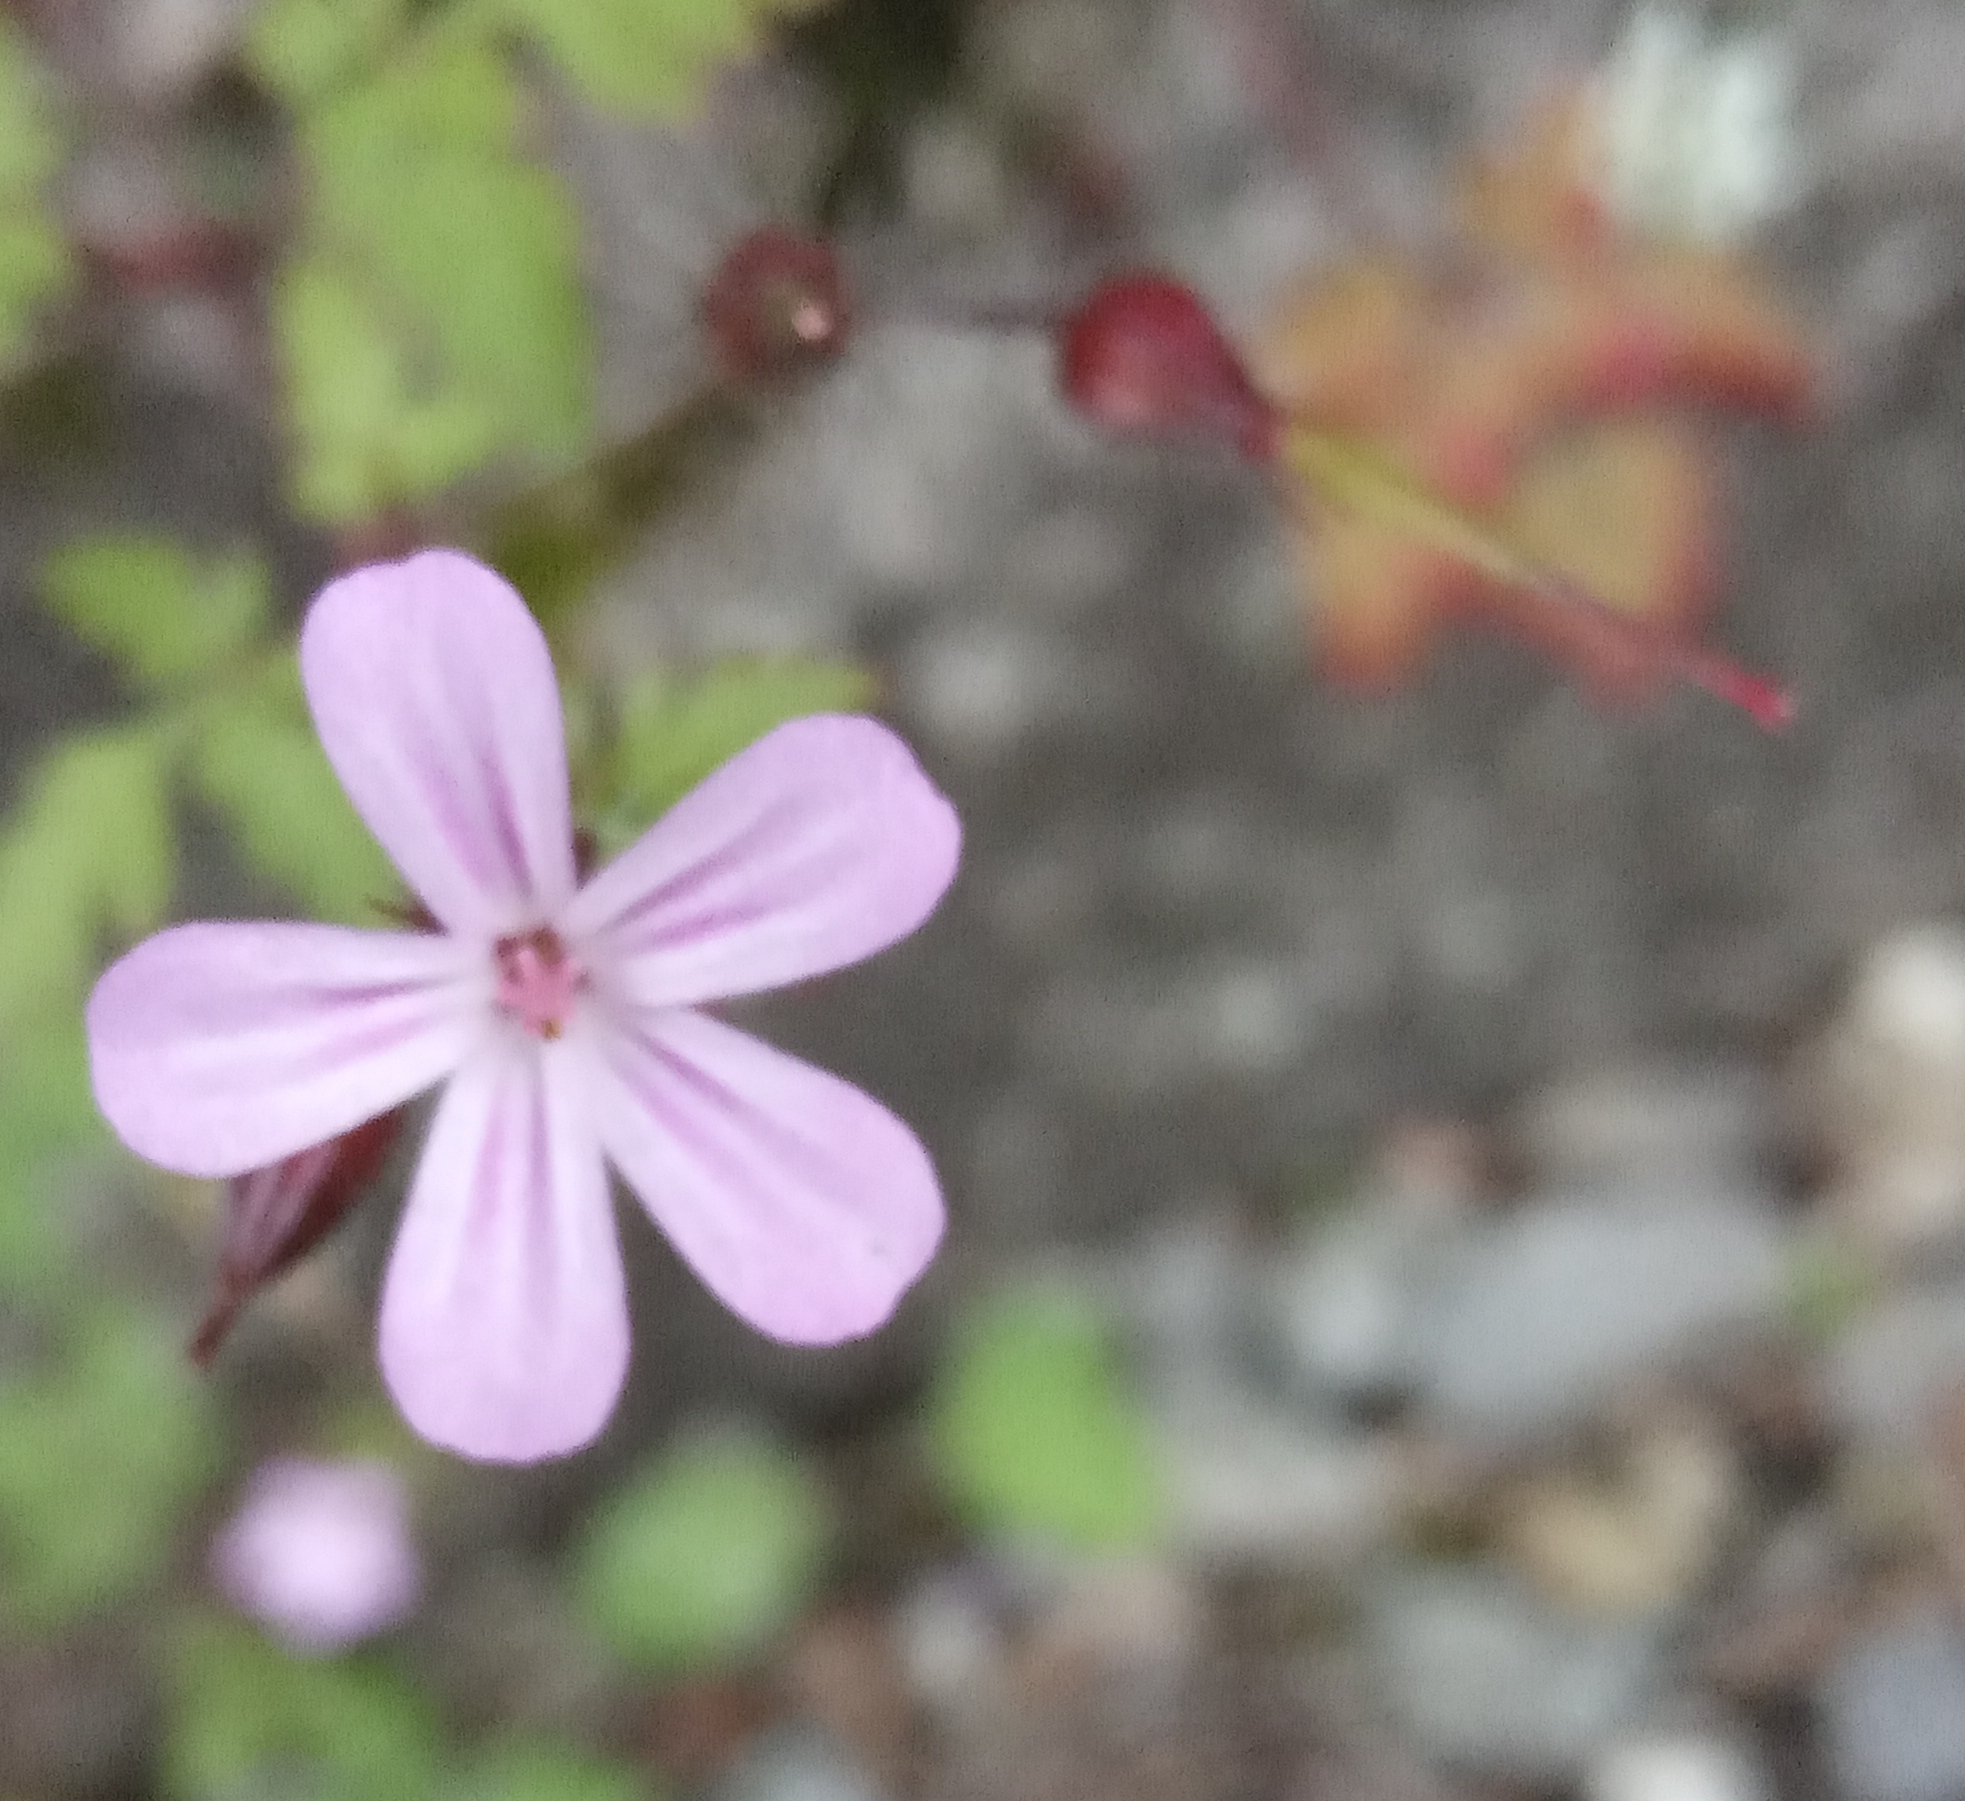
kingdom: Plantae
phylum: Tracheophyta
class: Magnoliopsida
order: Geraniales
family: Geraniaceae
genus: Geranium
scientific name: Geranium robertianum
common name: Herb-robert
